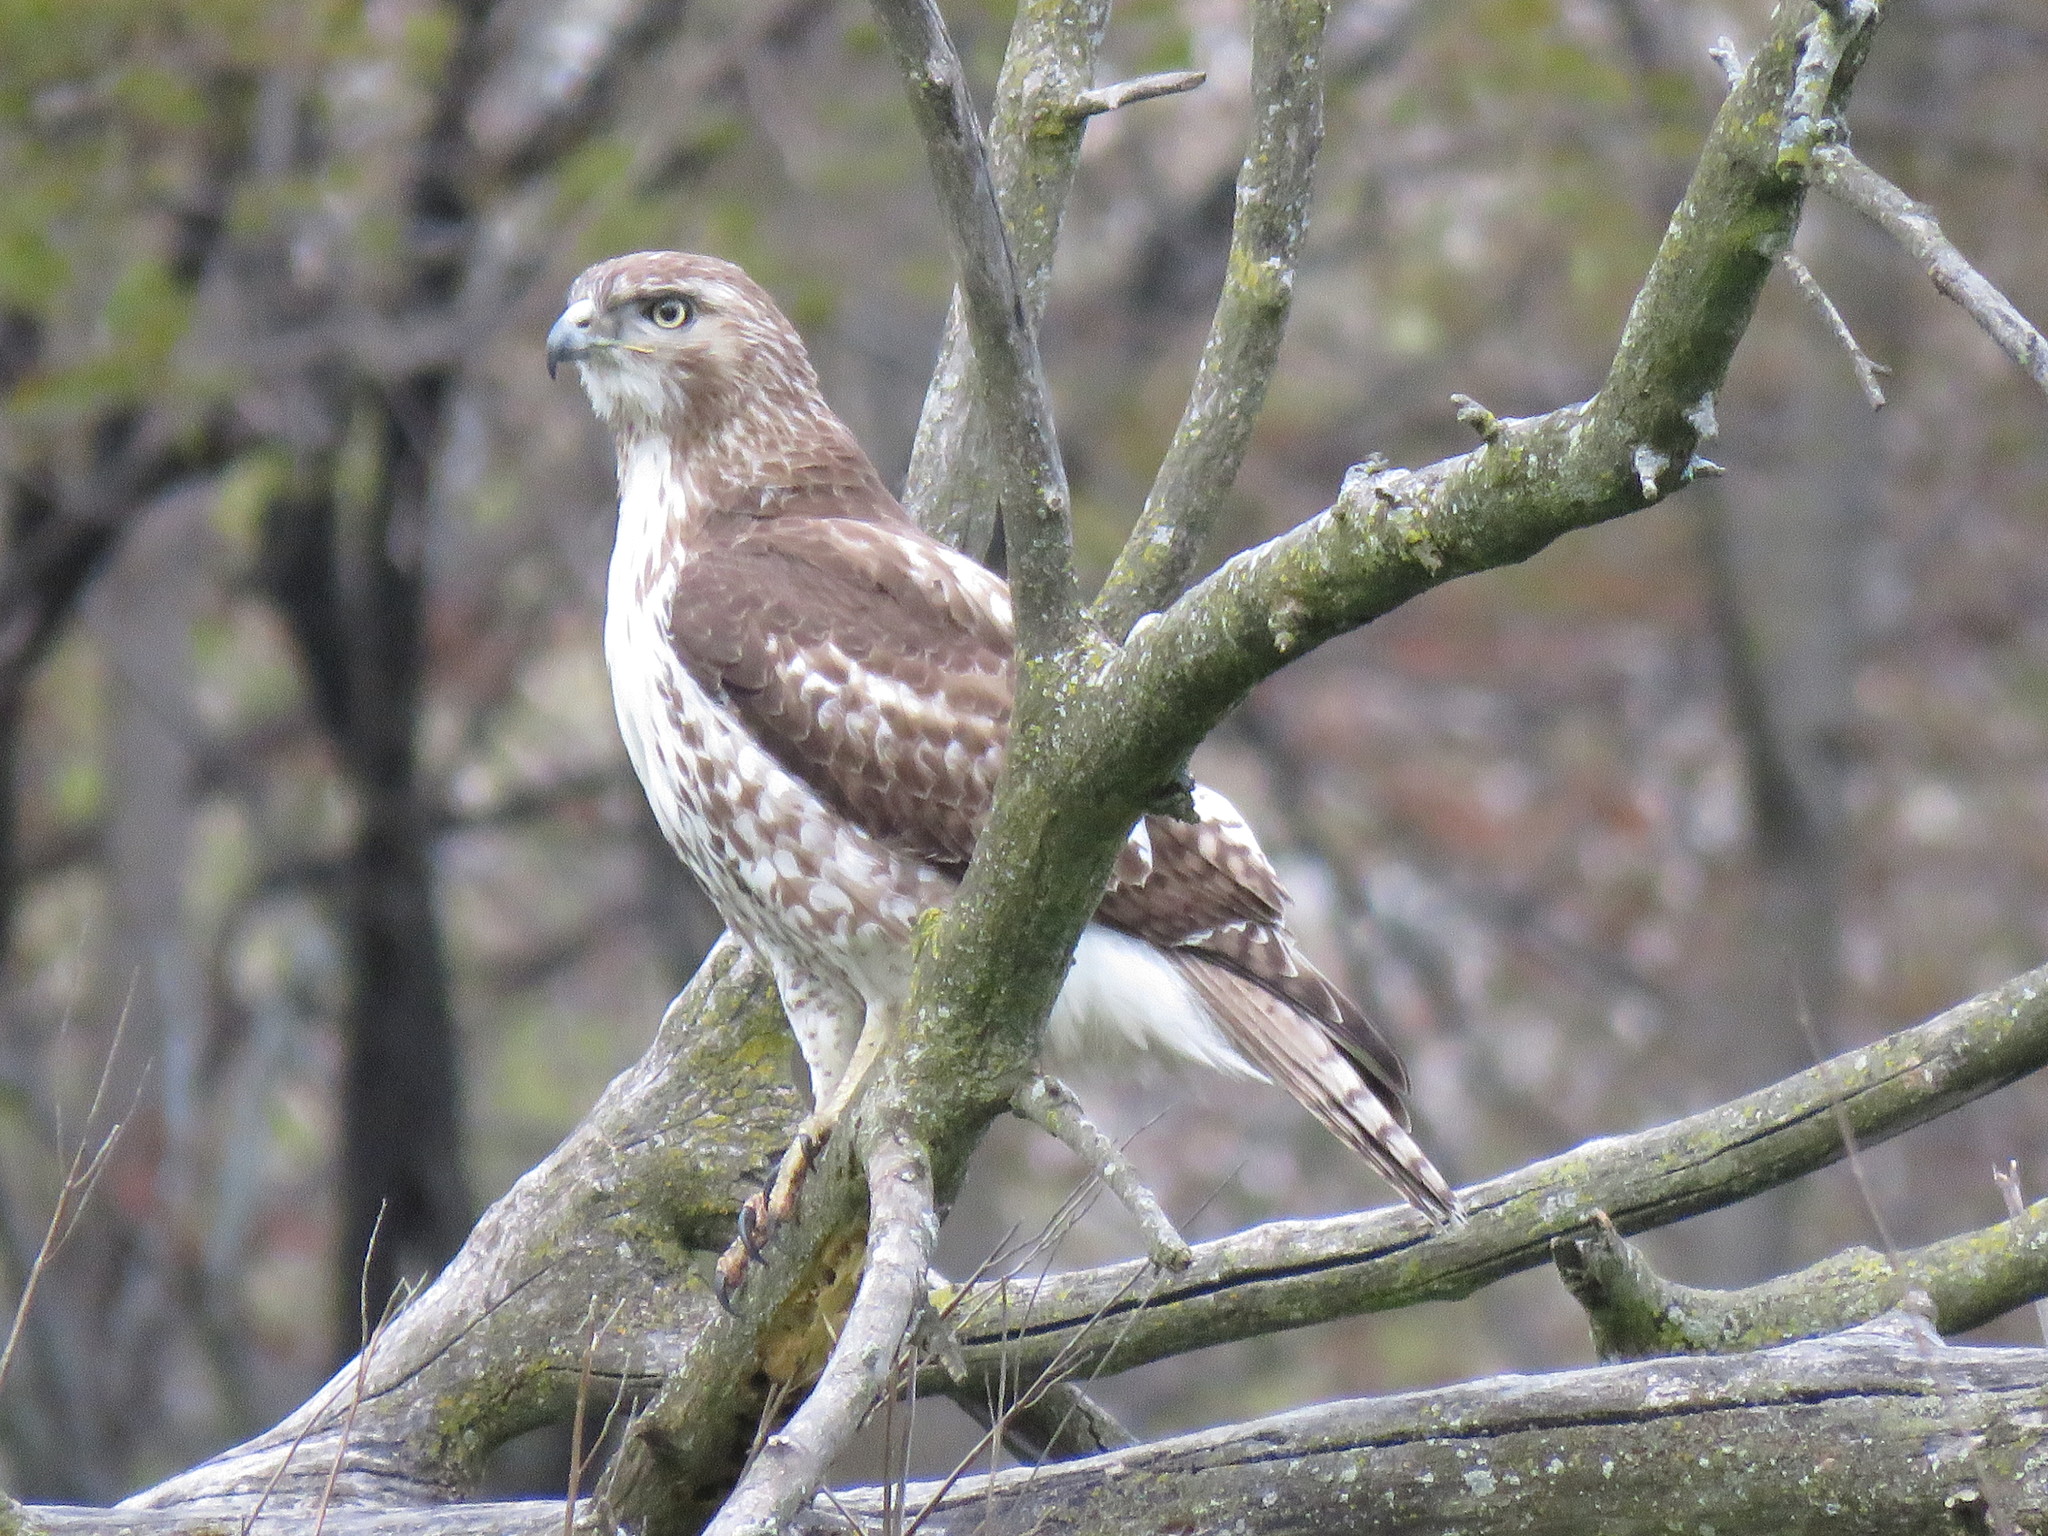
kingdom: Animalia
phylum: Chordata
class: Aves
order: Accipitriformes
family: Accipitridae
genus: Buteo
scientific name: Buteo jamaicensis
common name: Red-tailed hawk
